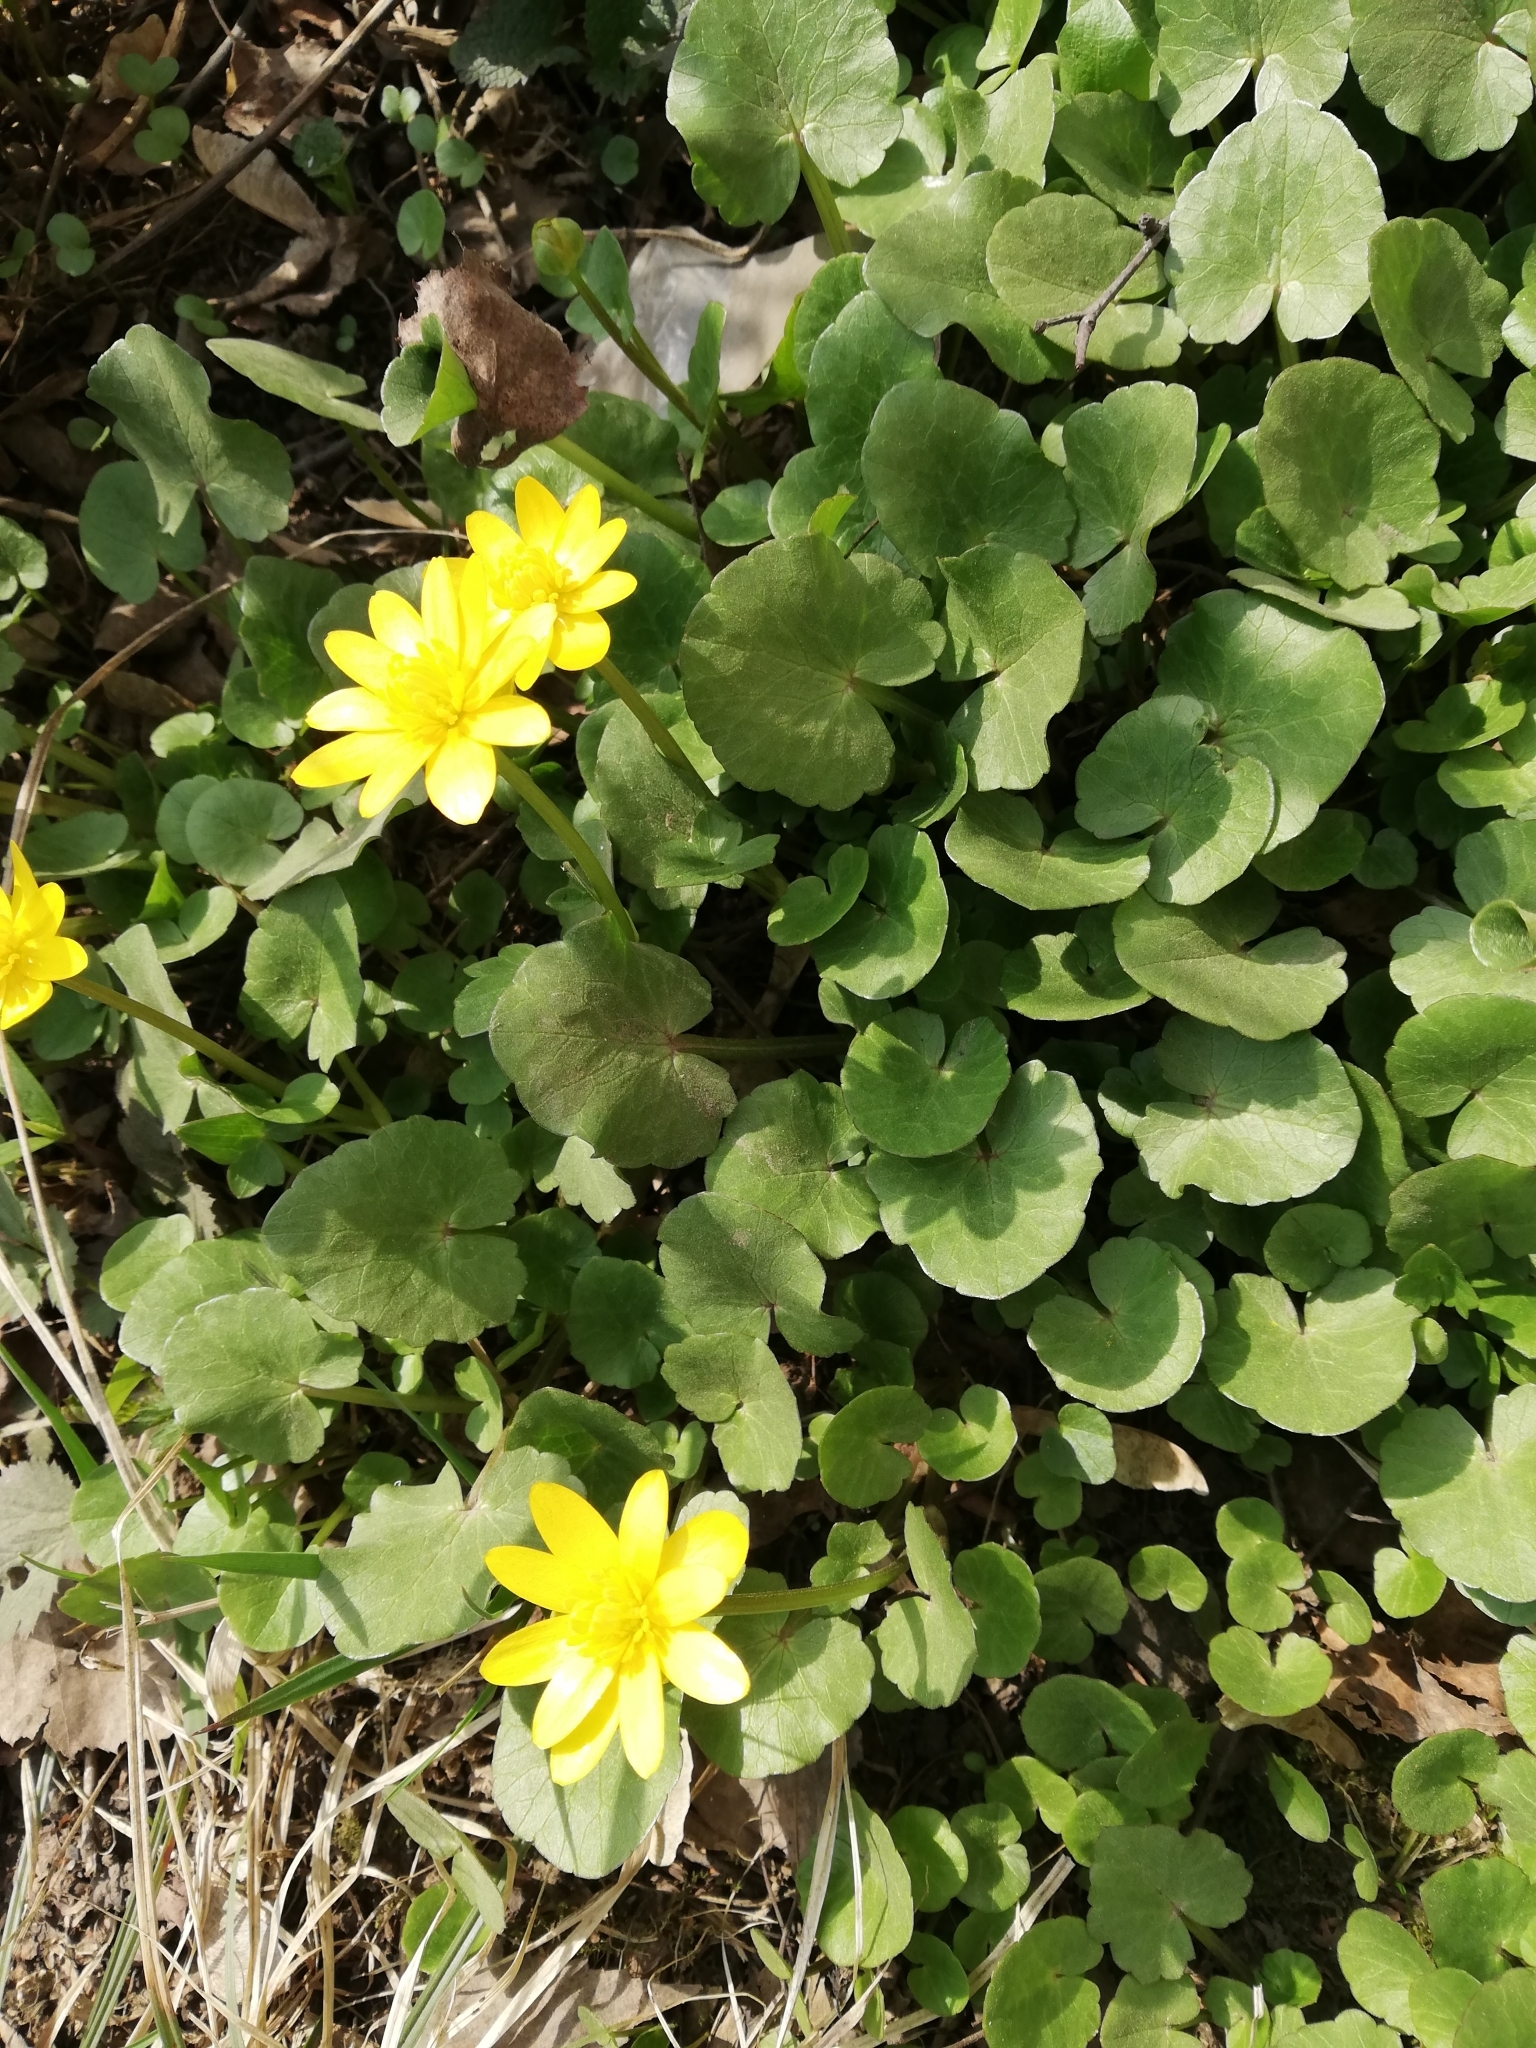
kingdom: Plantae
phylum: Tracheophyta
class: Magnoliopsida
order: Ranunculales
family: Ranunculaceae
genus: Ficaria
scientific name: Ficaria verna
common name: Lesser celandine
